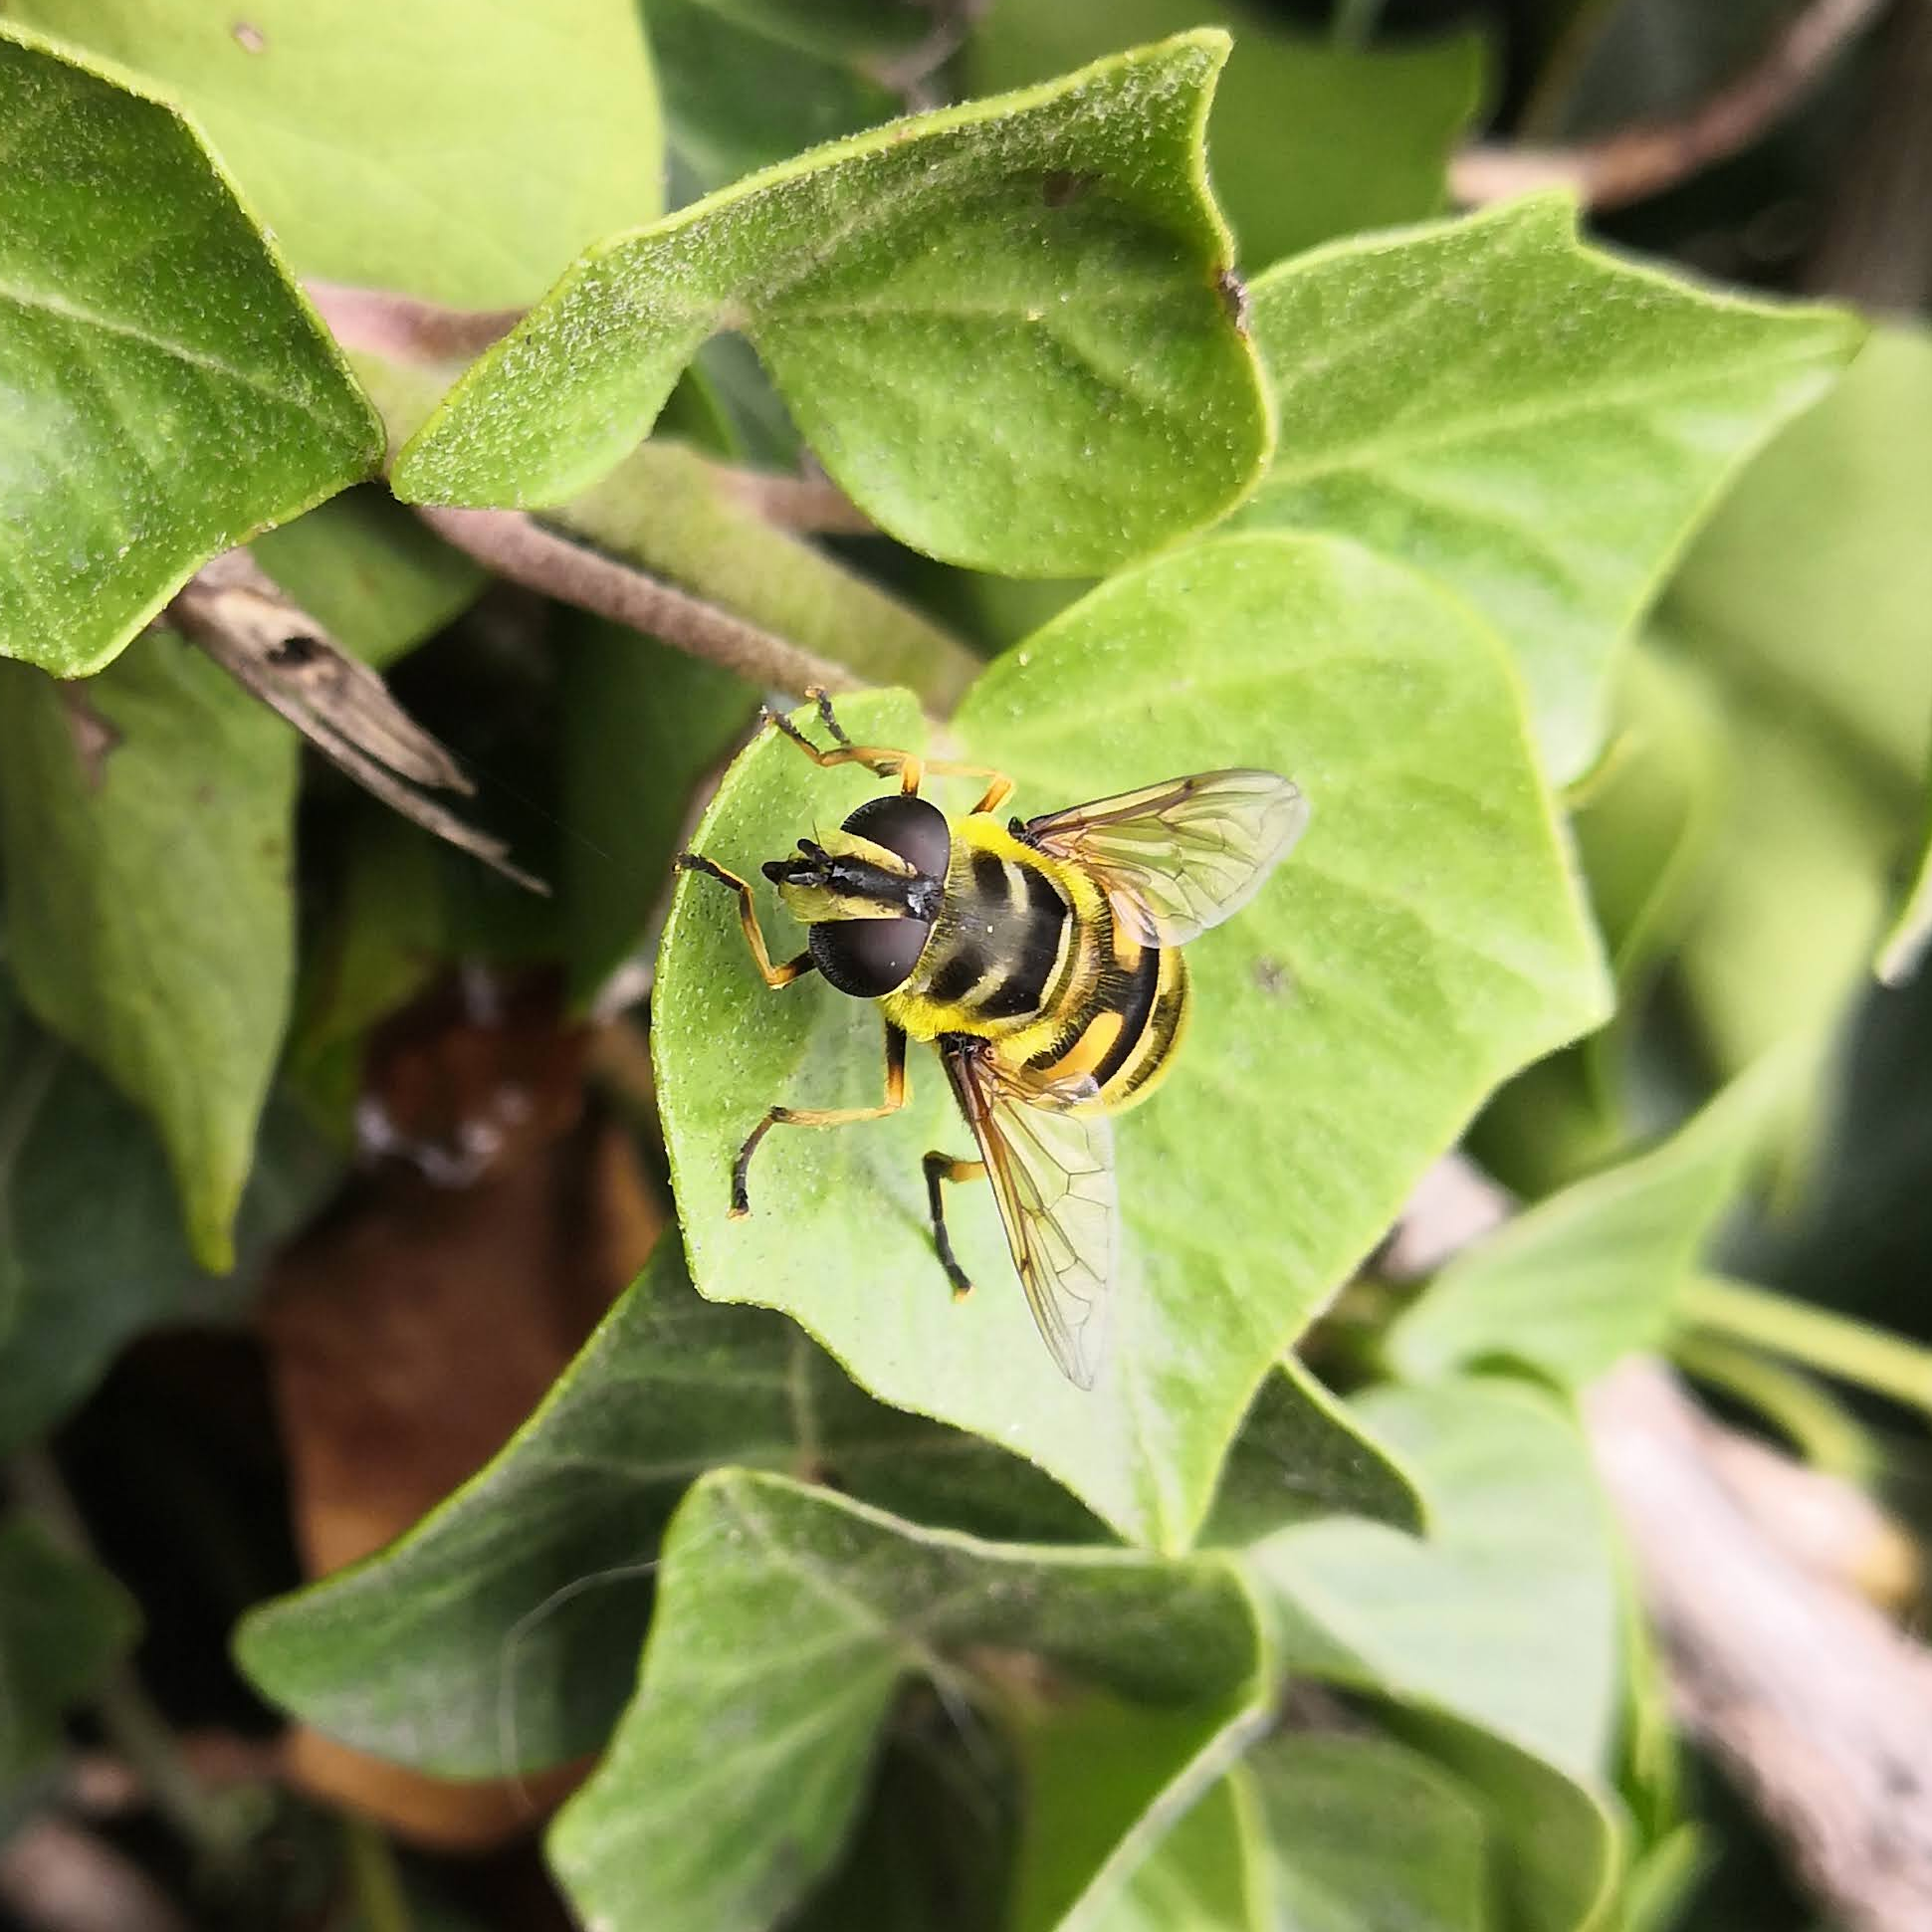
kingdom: Animalia
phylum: Arthropoda
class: Insecta
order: Diptera
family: Syrphidae
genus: Myathropa
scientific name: Myathropa florea
